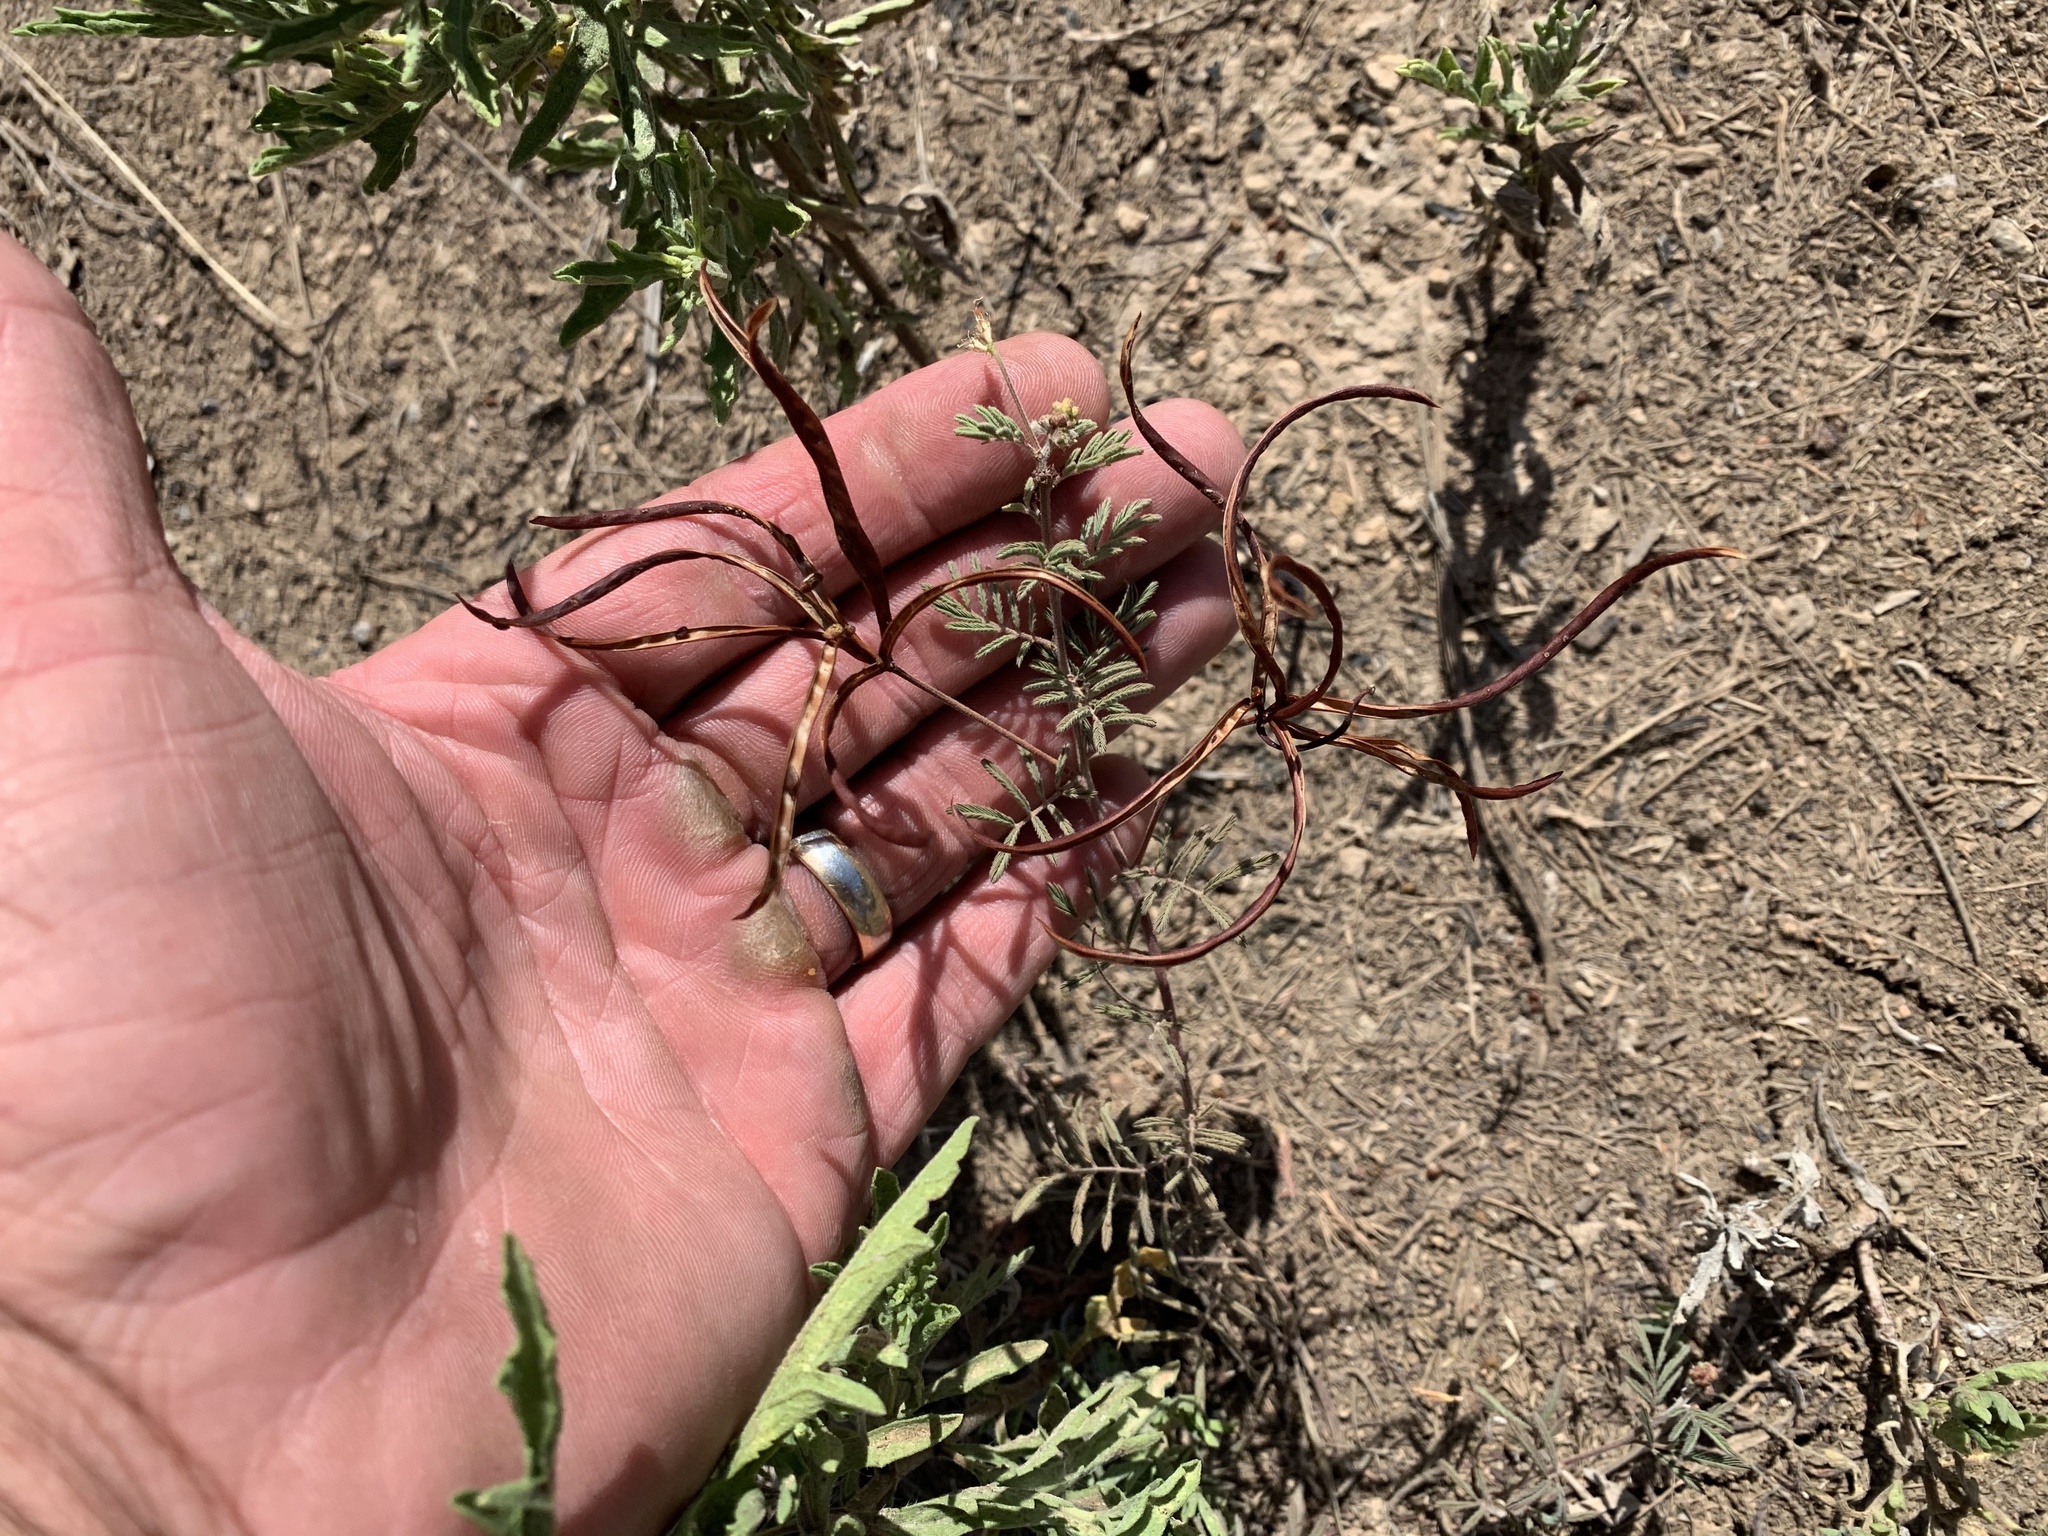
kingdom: Plantae
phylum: Tracheophyta
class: Magnoliopsida
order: Fabales
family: Fabaceae
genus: Desmanthus
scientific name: Desmanthus velutinus
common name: Velvet bundle-flower
